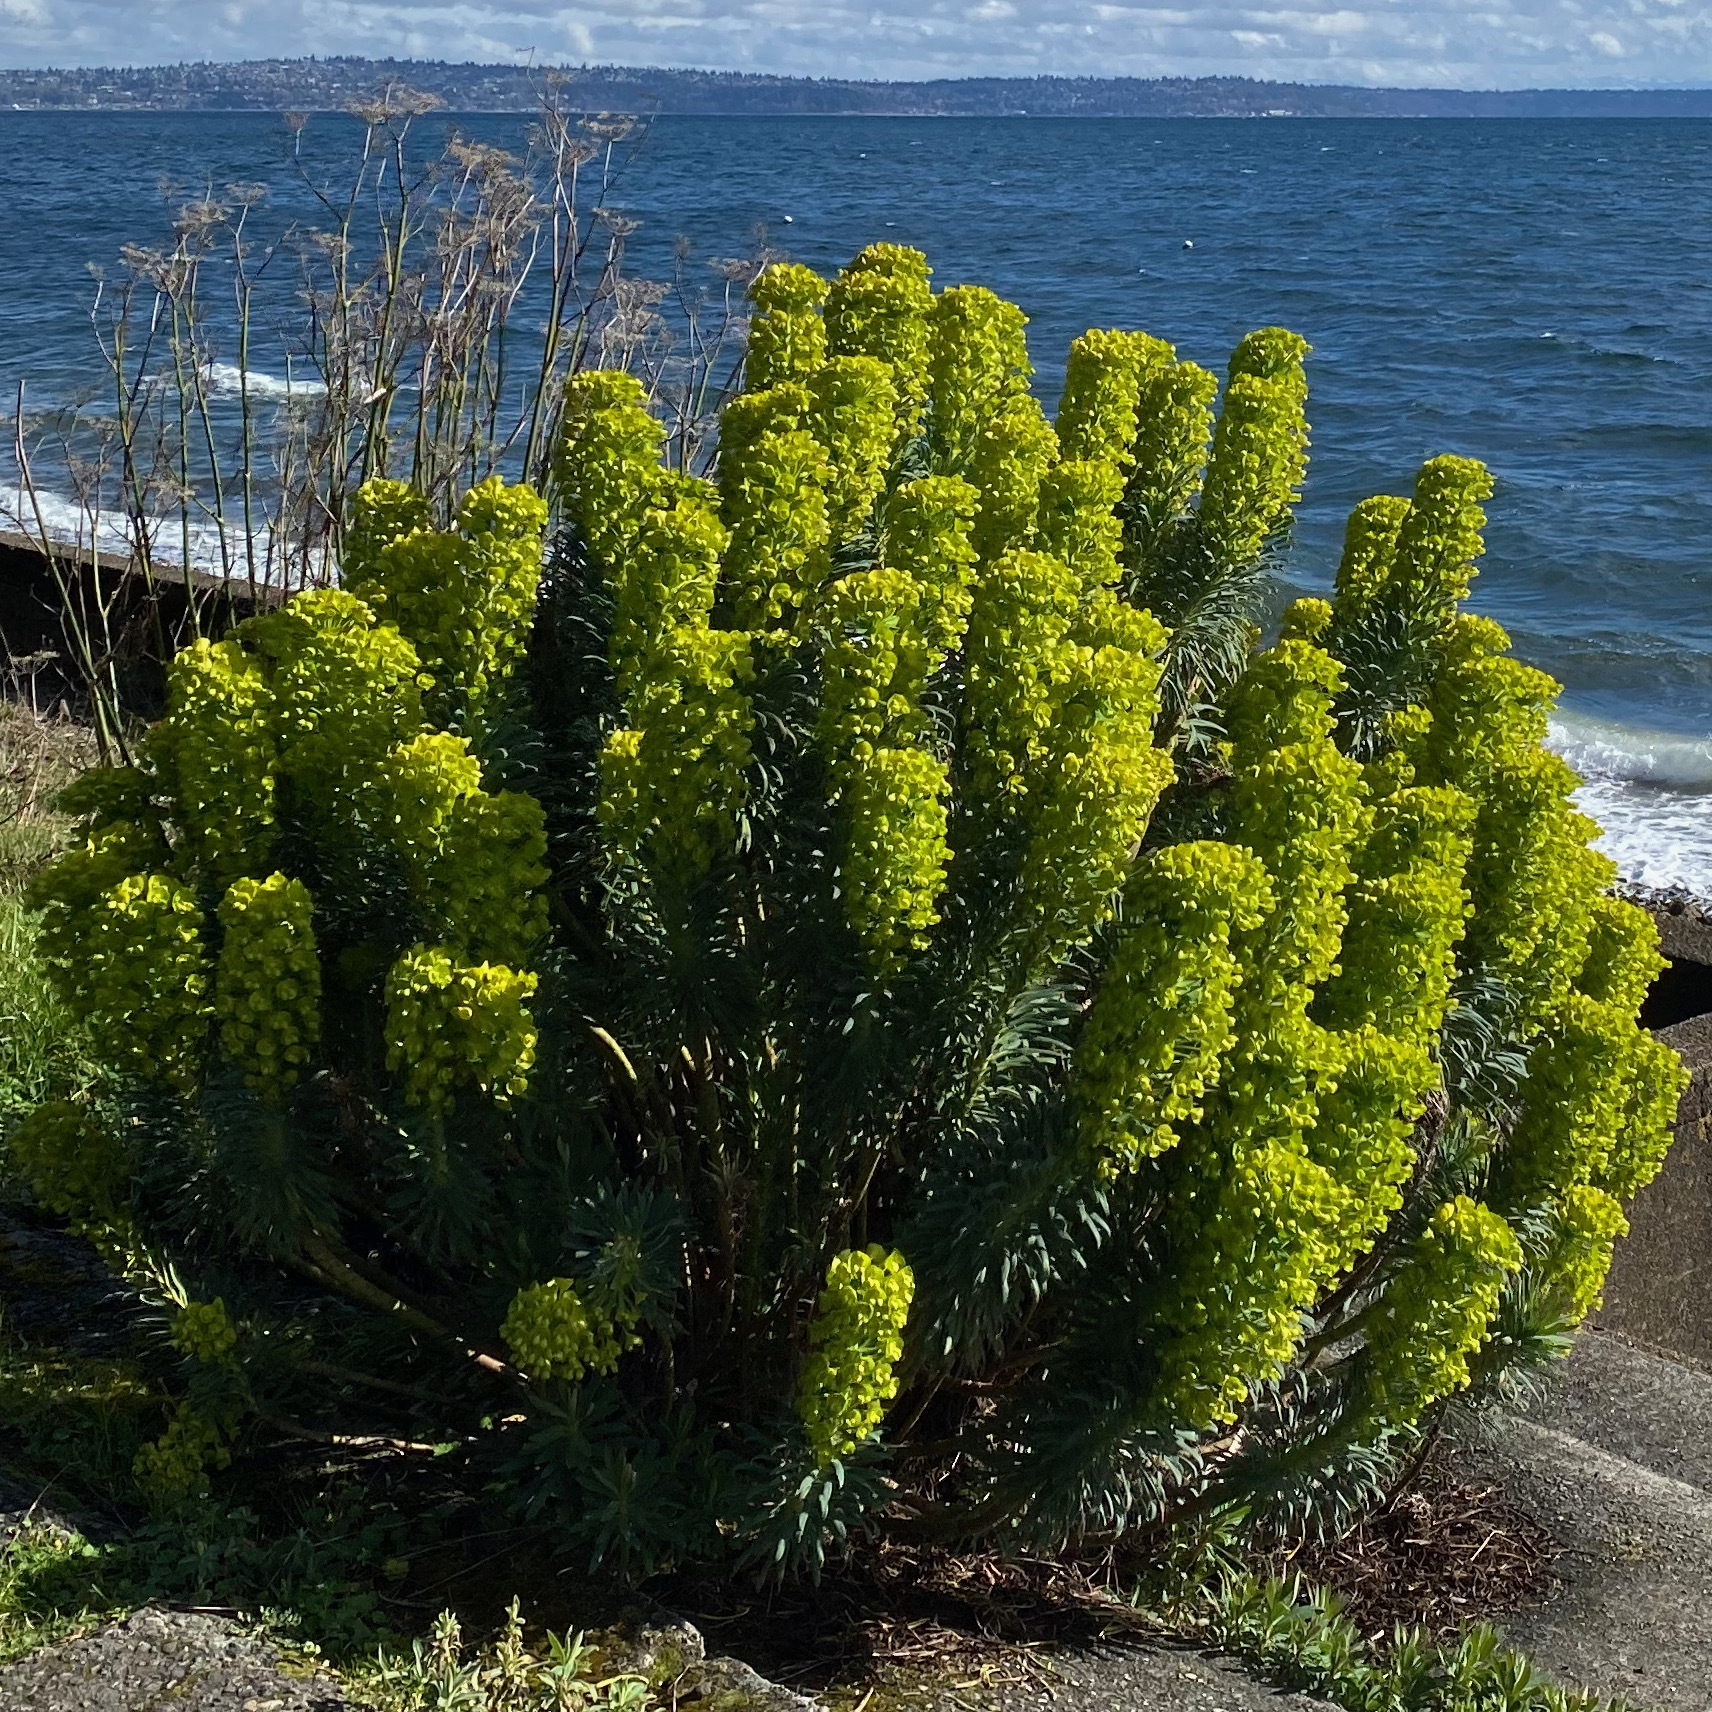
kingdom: Plantae
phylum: Tracheophyta
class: Magnoliopsida
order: Malpighiales
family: Euphorbiaceae
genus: Euphorbia
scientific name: Euphorbia characias
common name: Mediterranean spurge
